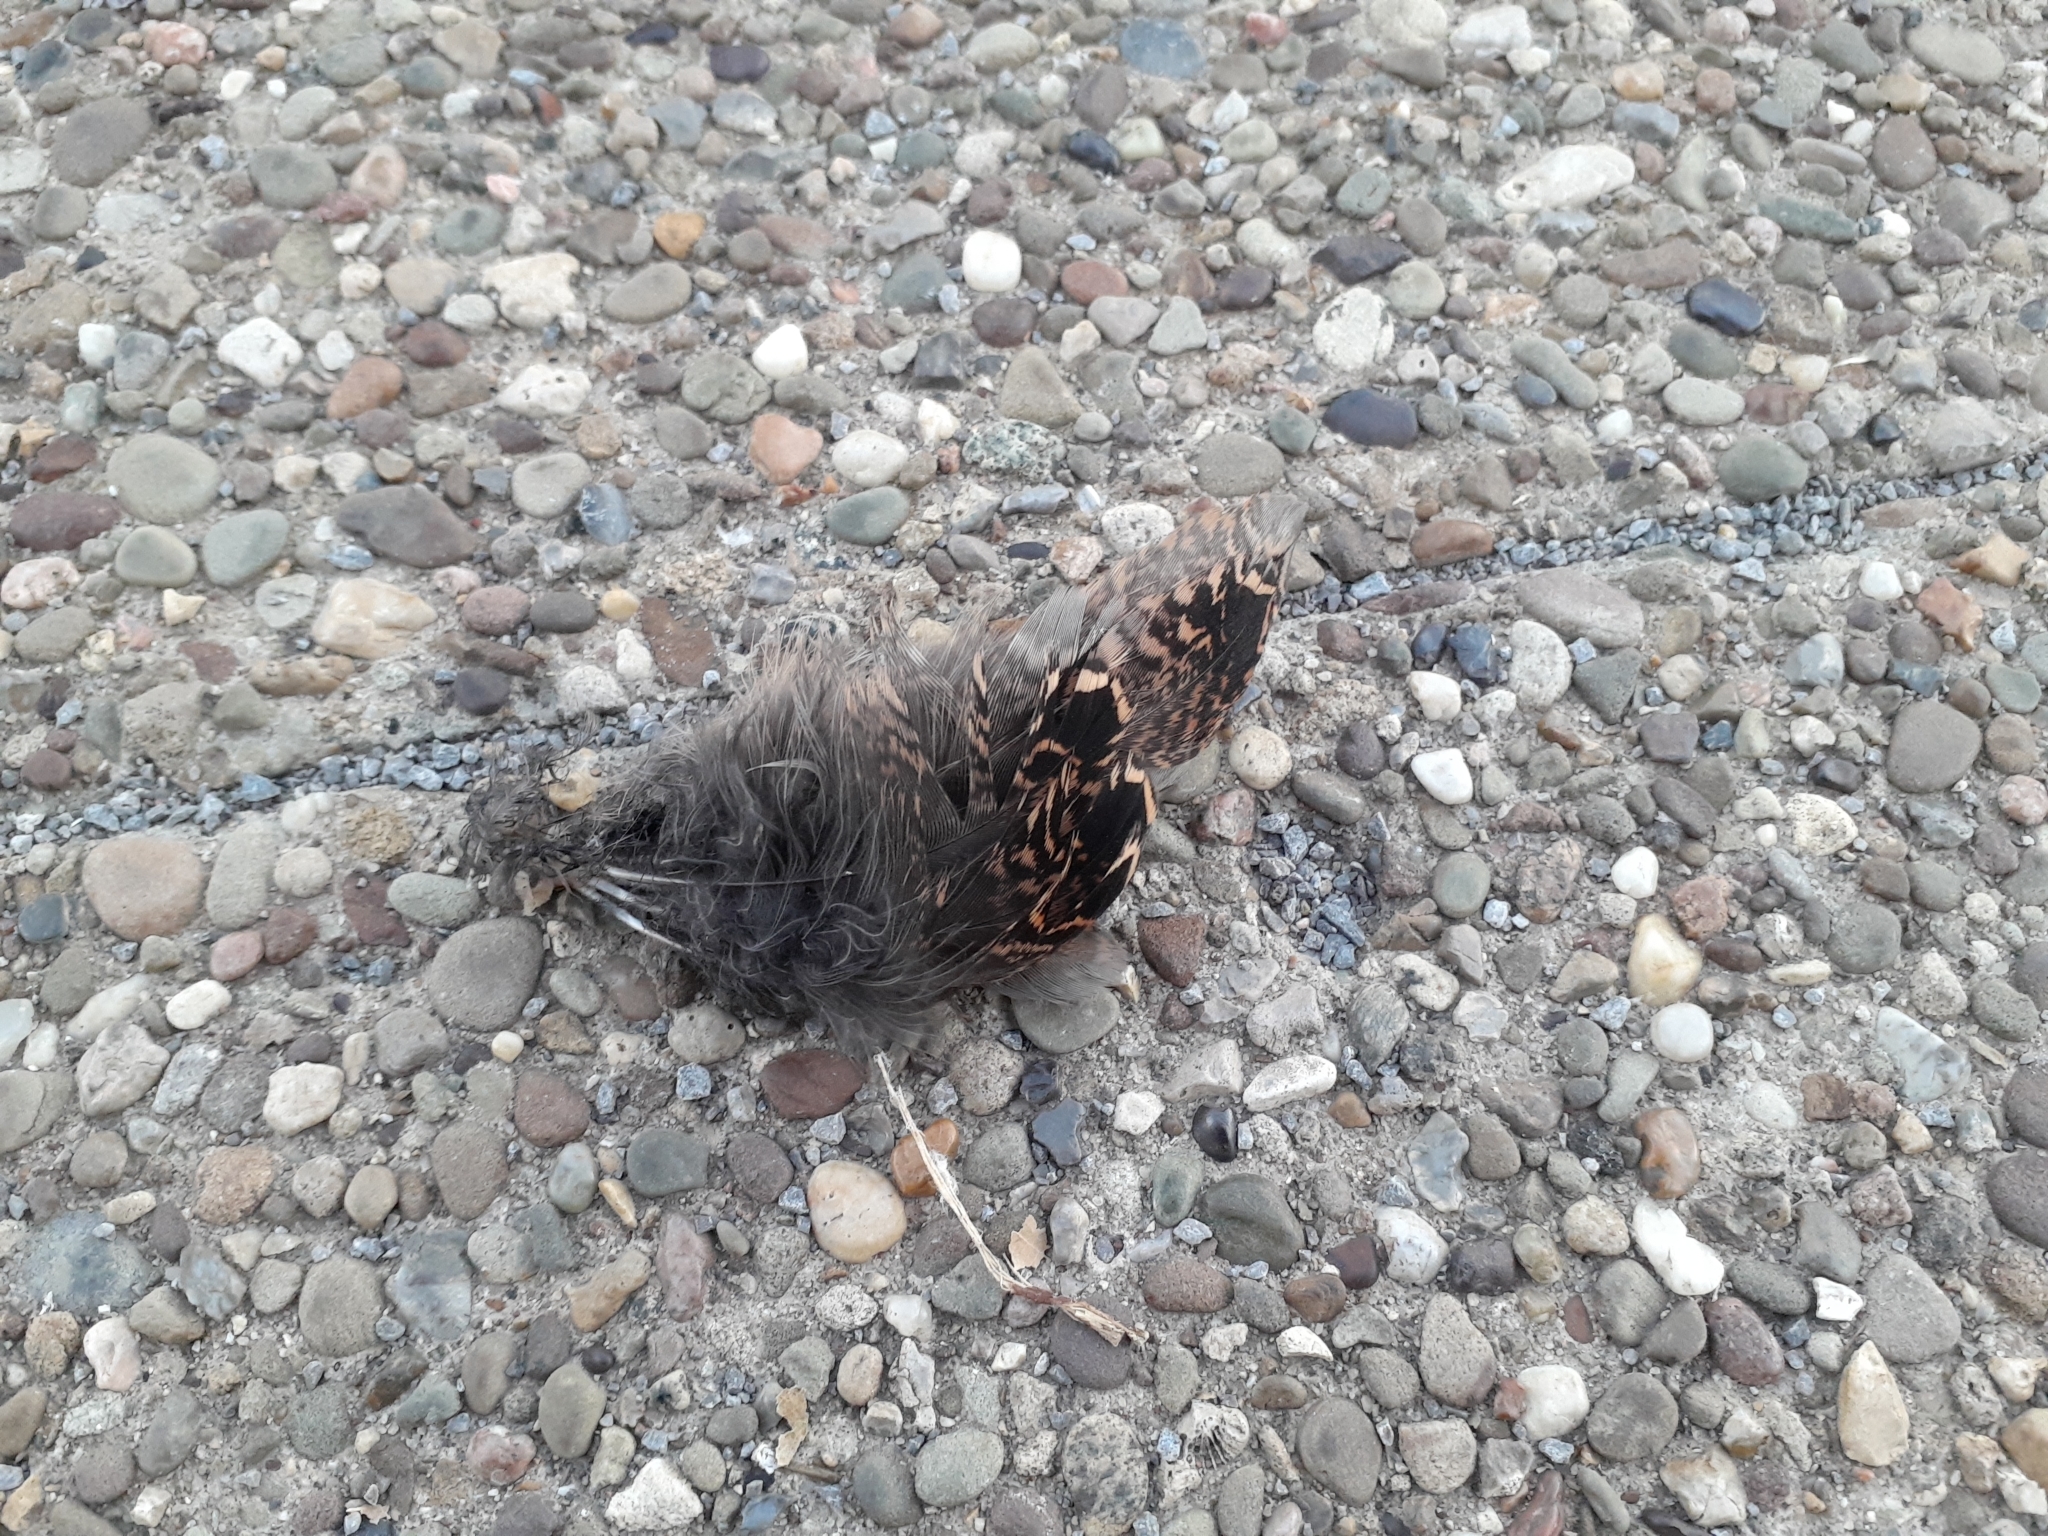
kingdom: Animalia
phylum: Chordata
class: Aves
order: Charadriiformes
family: Scolopacidae
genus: Scolopax
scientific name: Scolopax minor
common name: American woodcock
